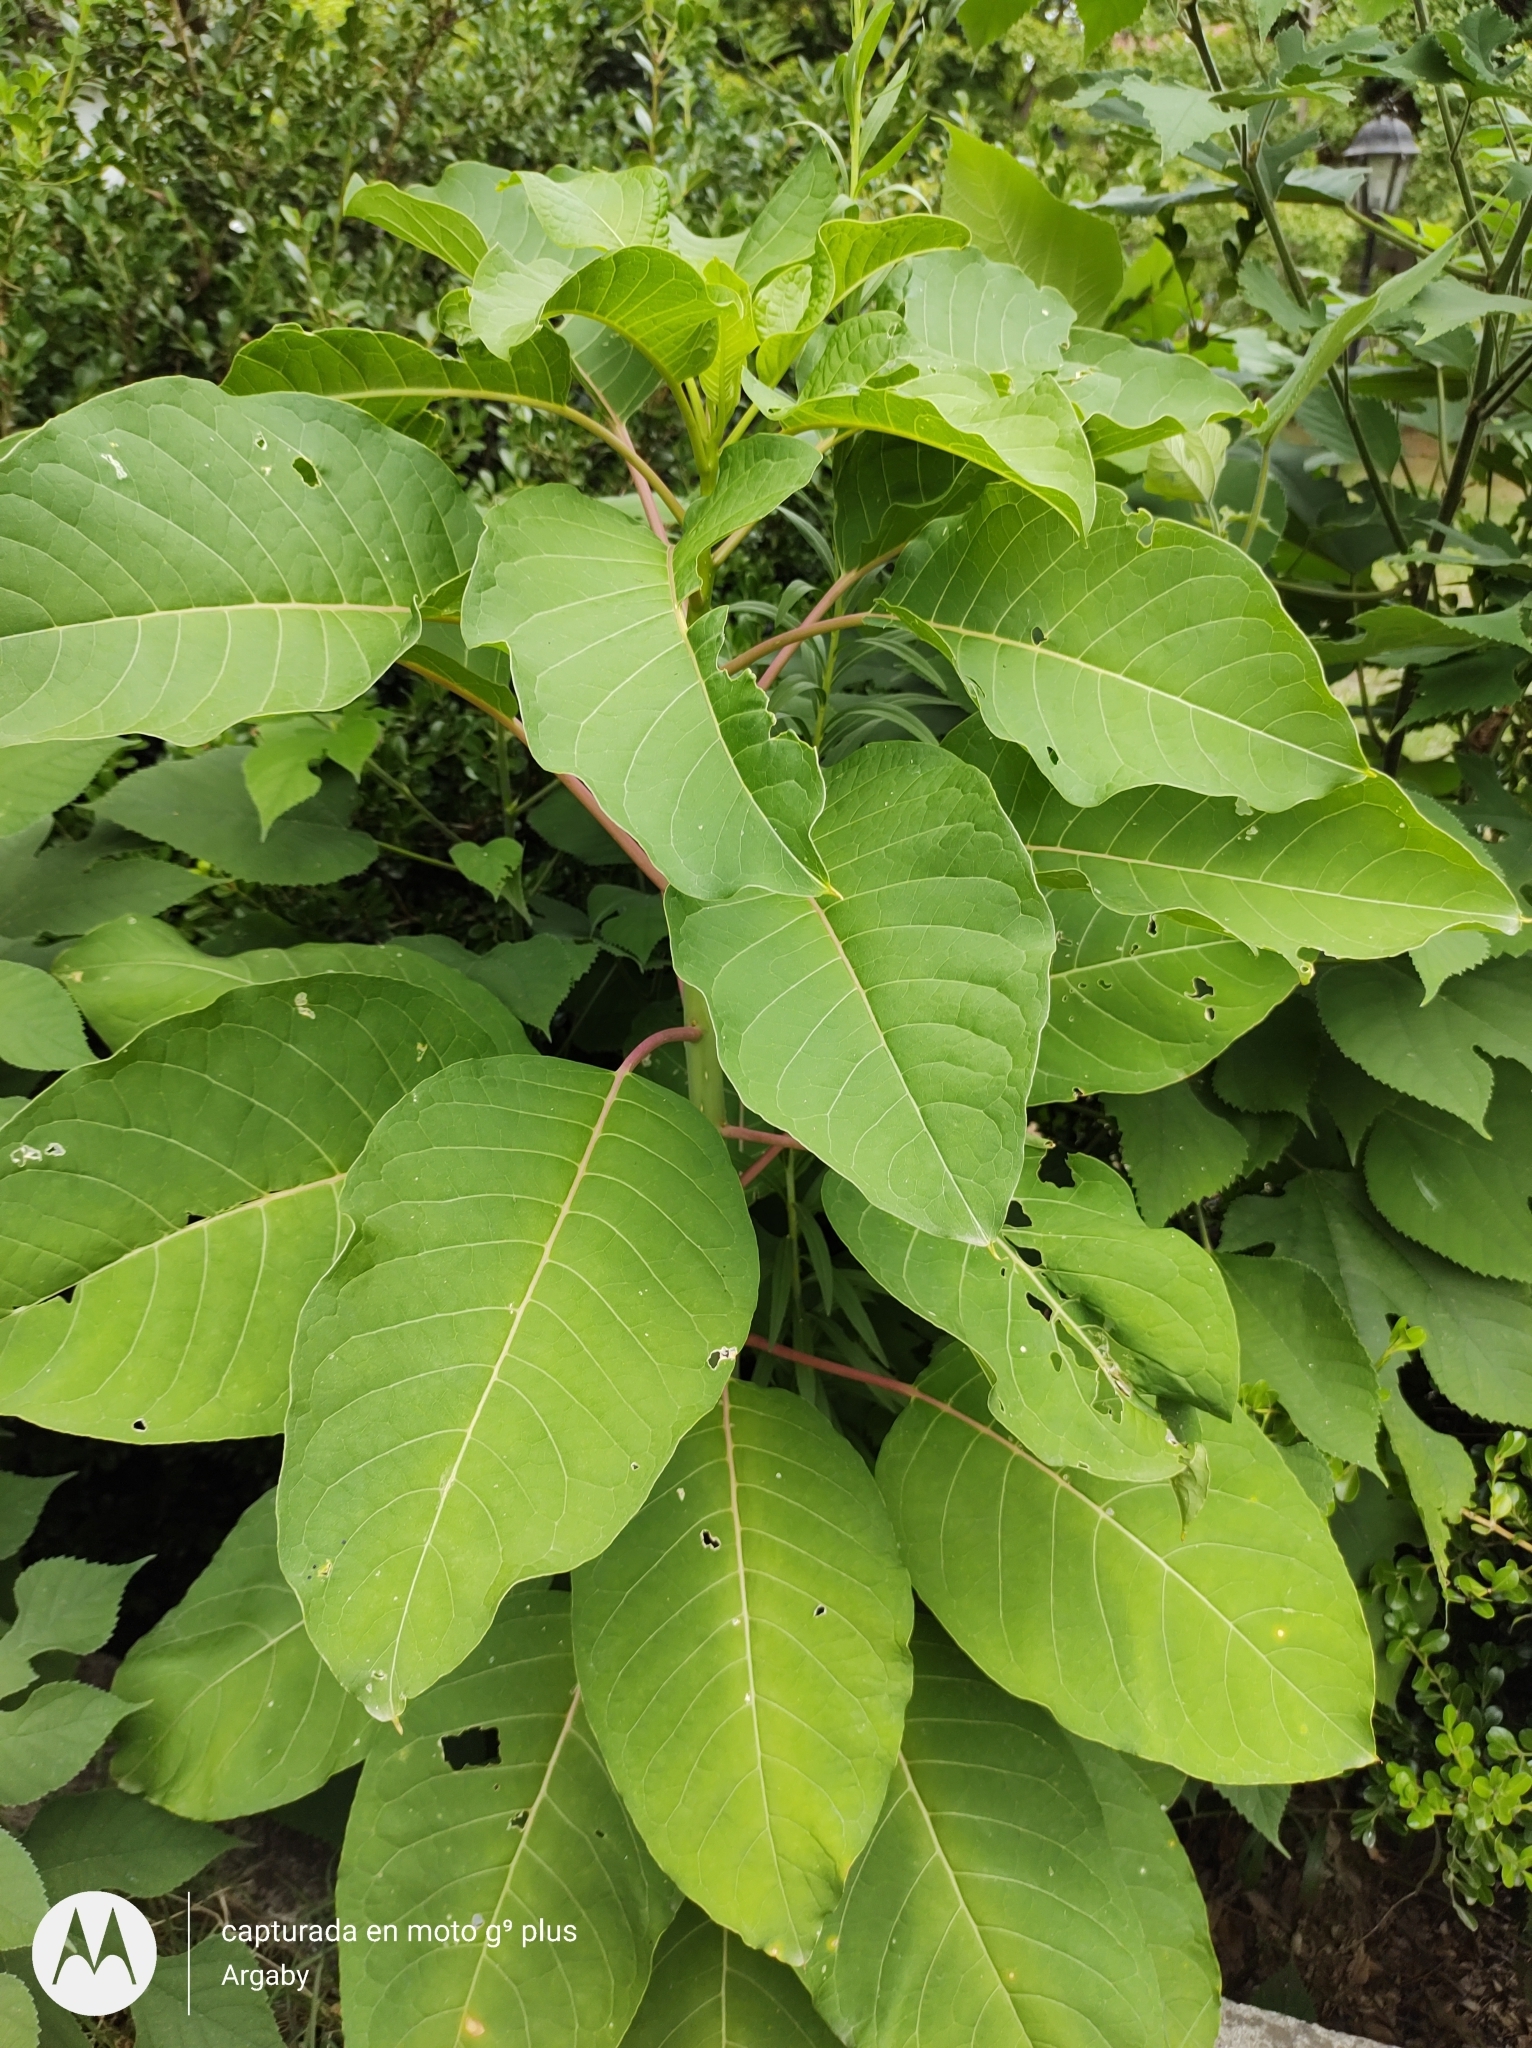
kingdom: Plantae
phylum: Tracheophyta
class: Magnoliopsida
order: Caryophyllales
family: Phytolaccaceae
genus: Phytolacca
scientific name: Phytolacca dioica
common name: Pokeweed
